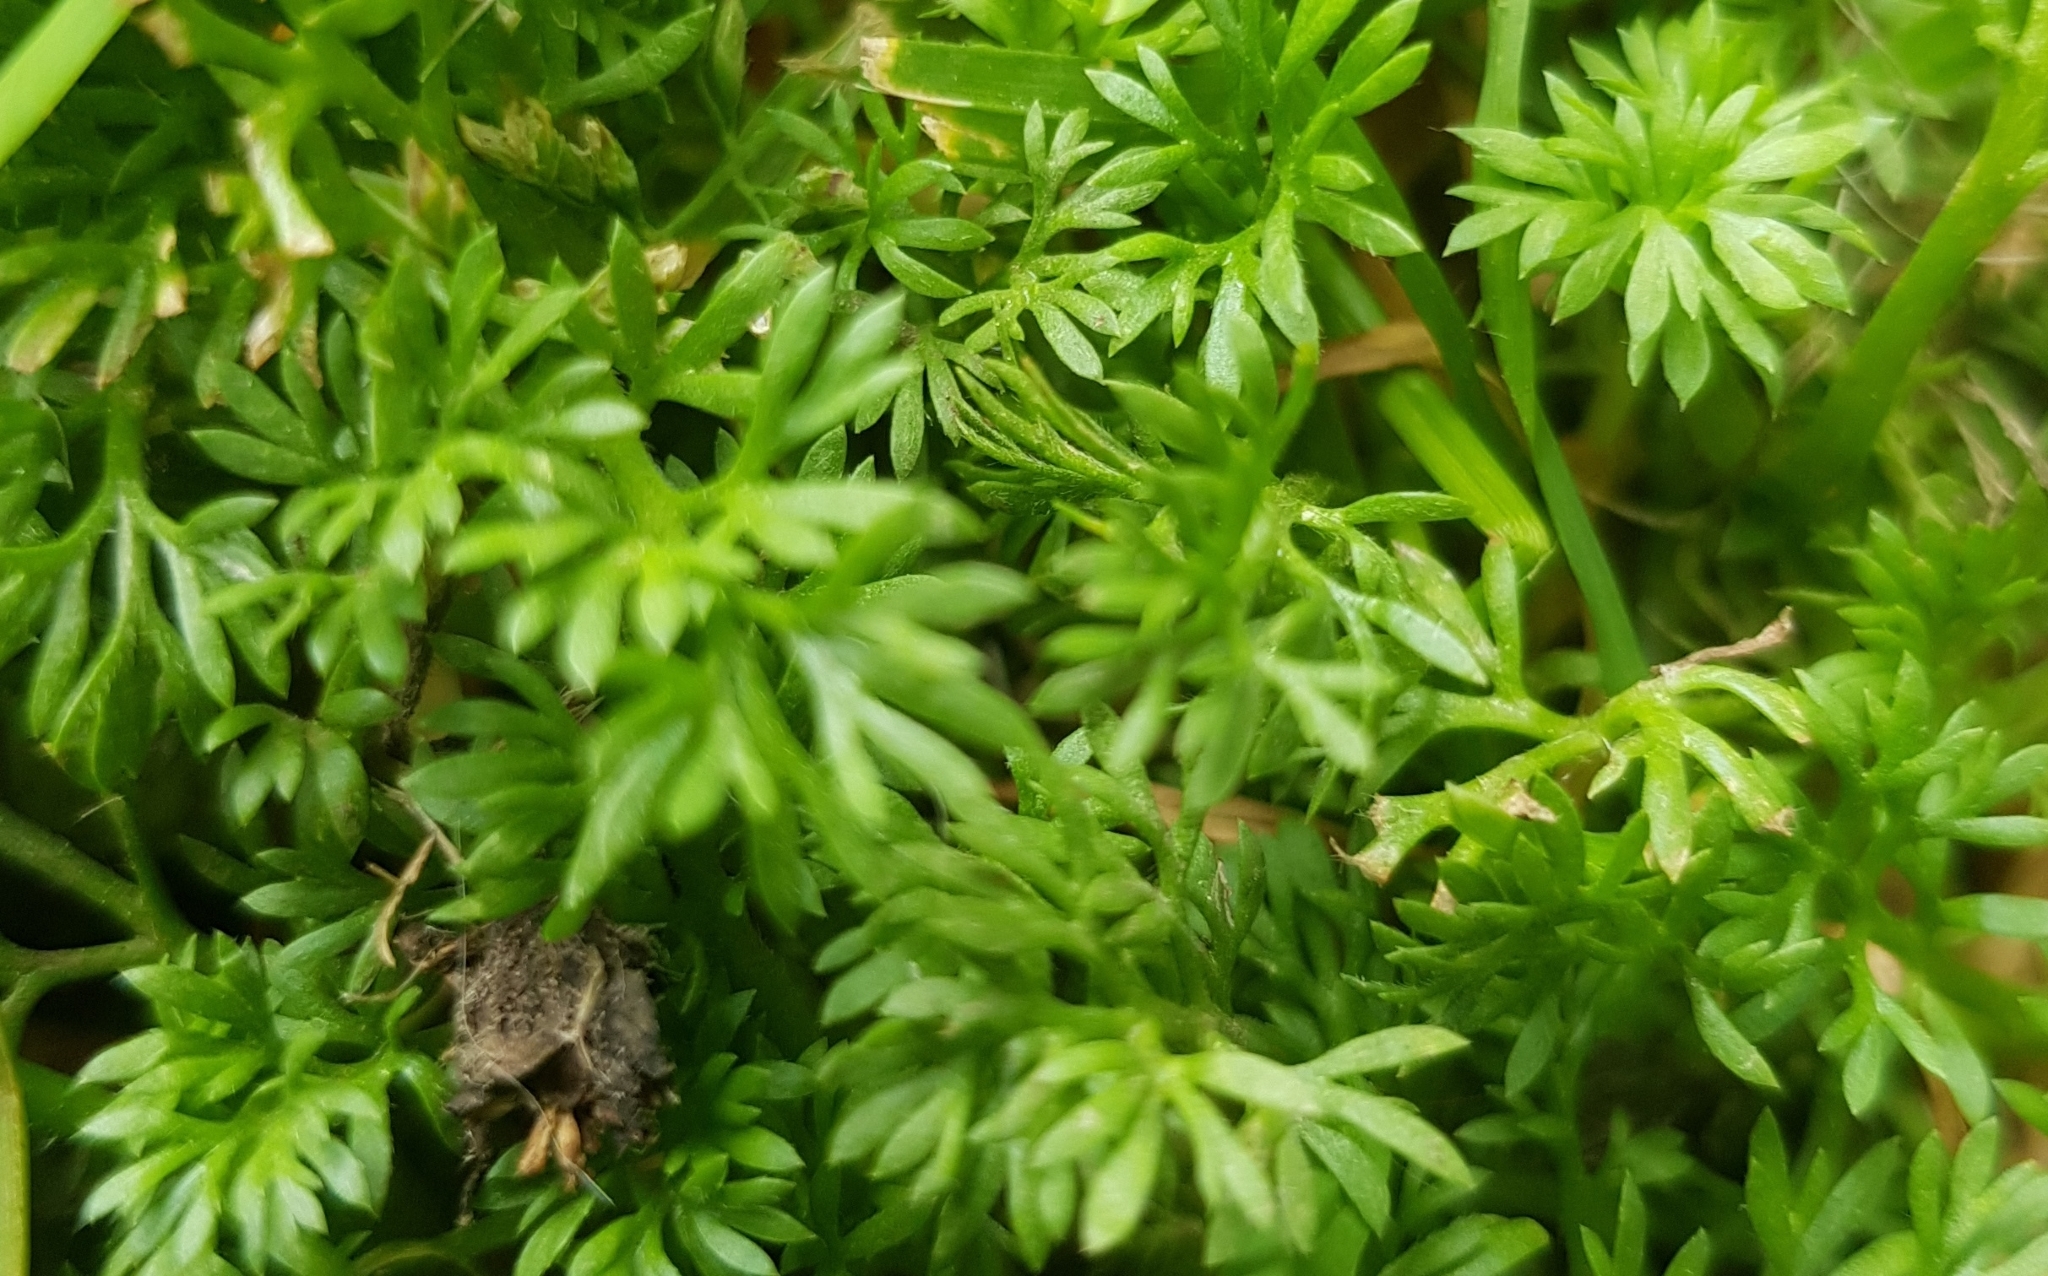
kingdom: Plantae
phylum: Tracheophyta
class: Magnoliopsida
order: Asterales
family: Asteraceae
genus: Cotula
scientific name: Cotula australis
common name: Australian waterbuttons
